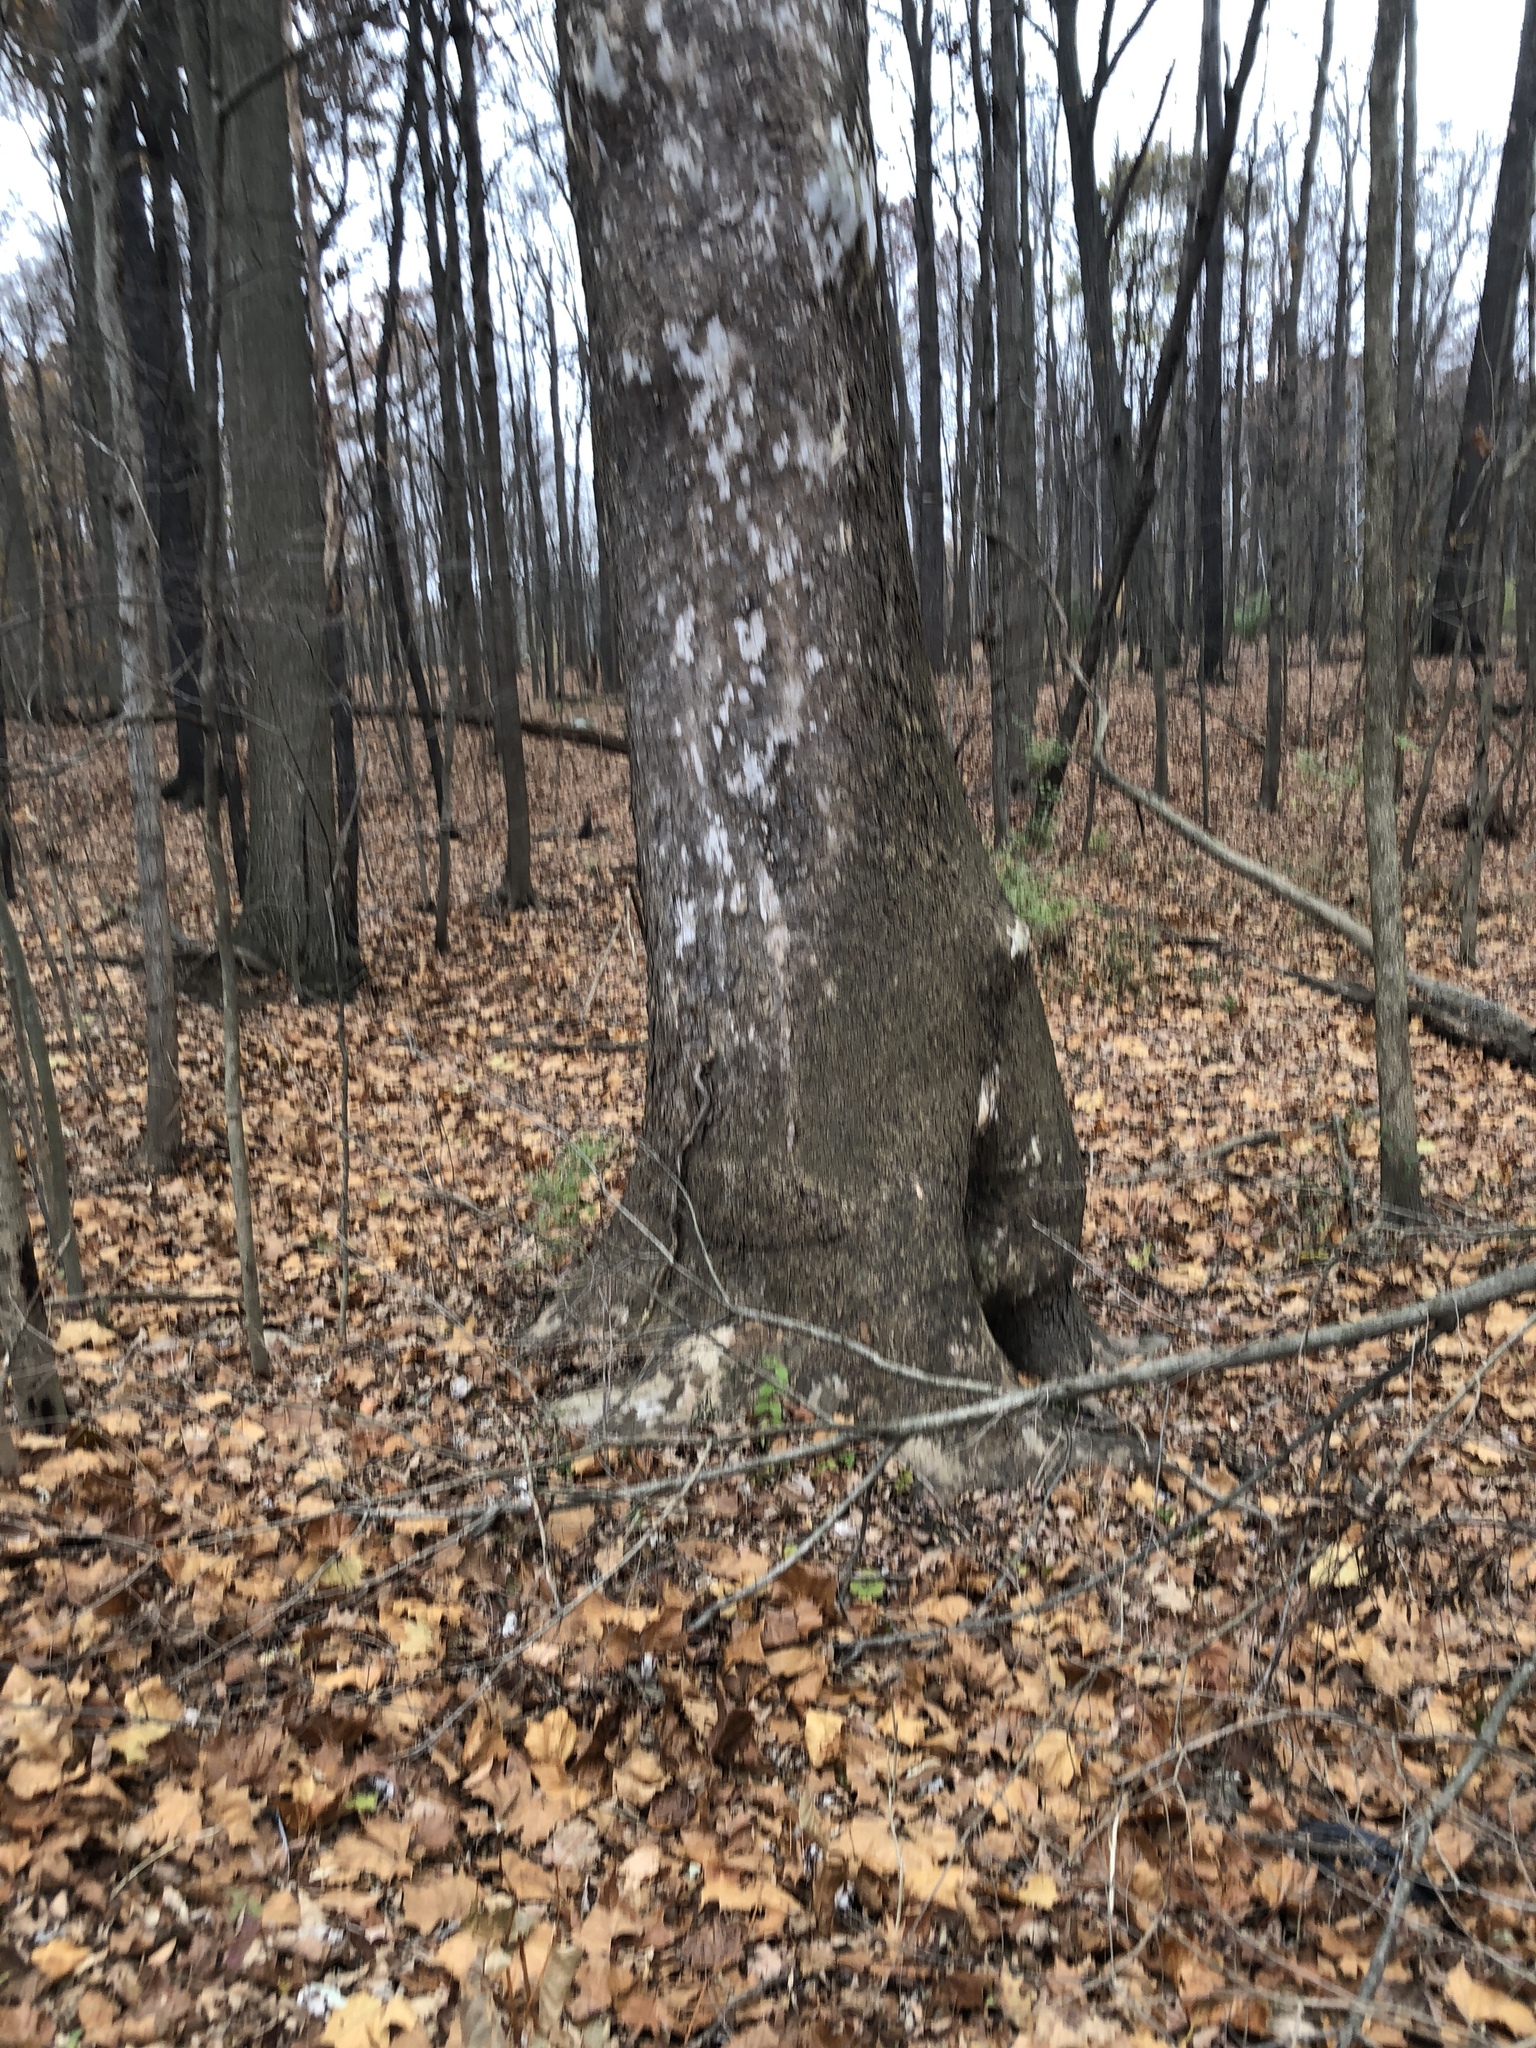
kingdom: Plantae
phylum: Tracheophyta
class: Magnoliopsida
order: Proteales
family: Platanaceae
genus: Platanus
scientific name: Platanus occidentalis
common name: American sycamore
